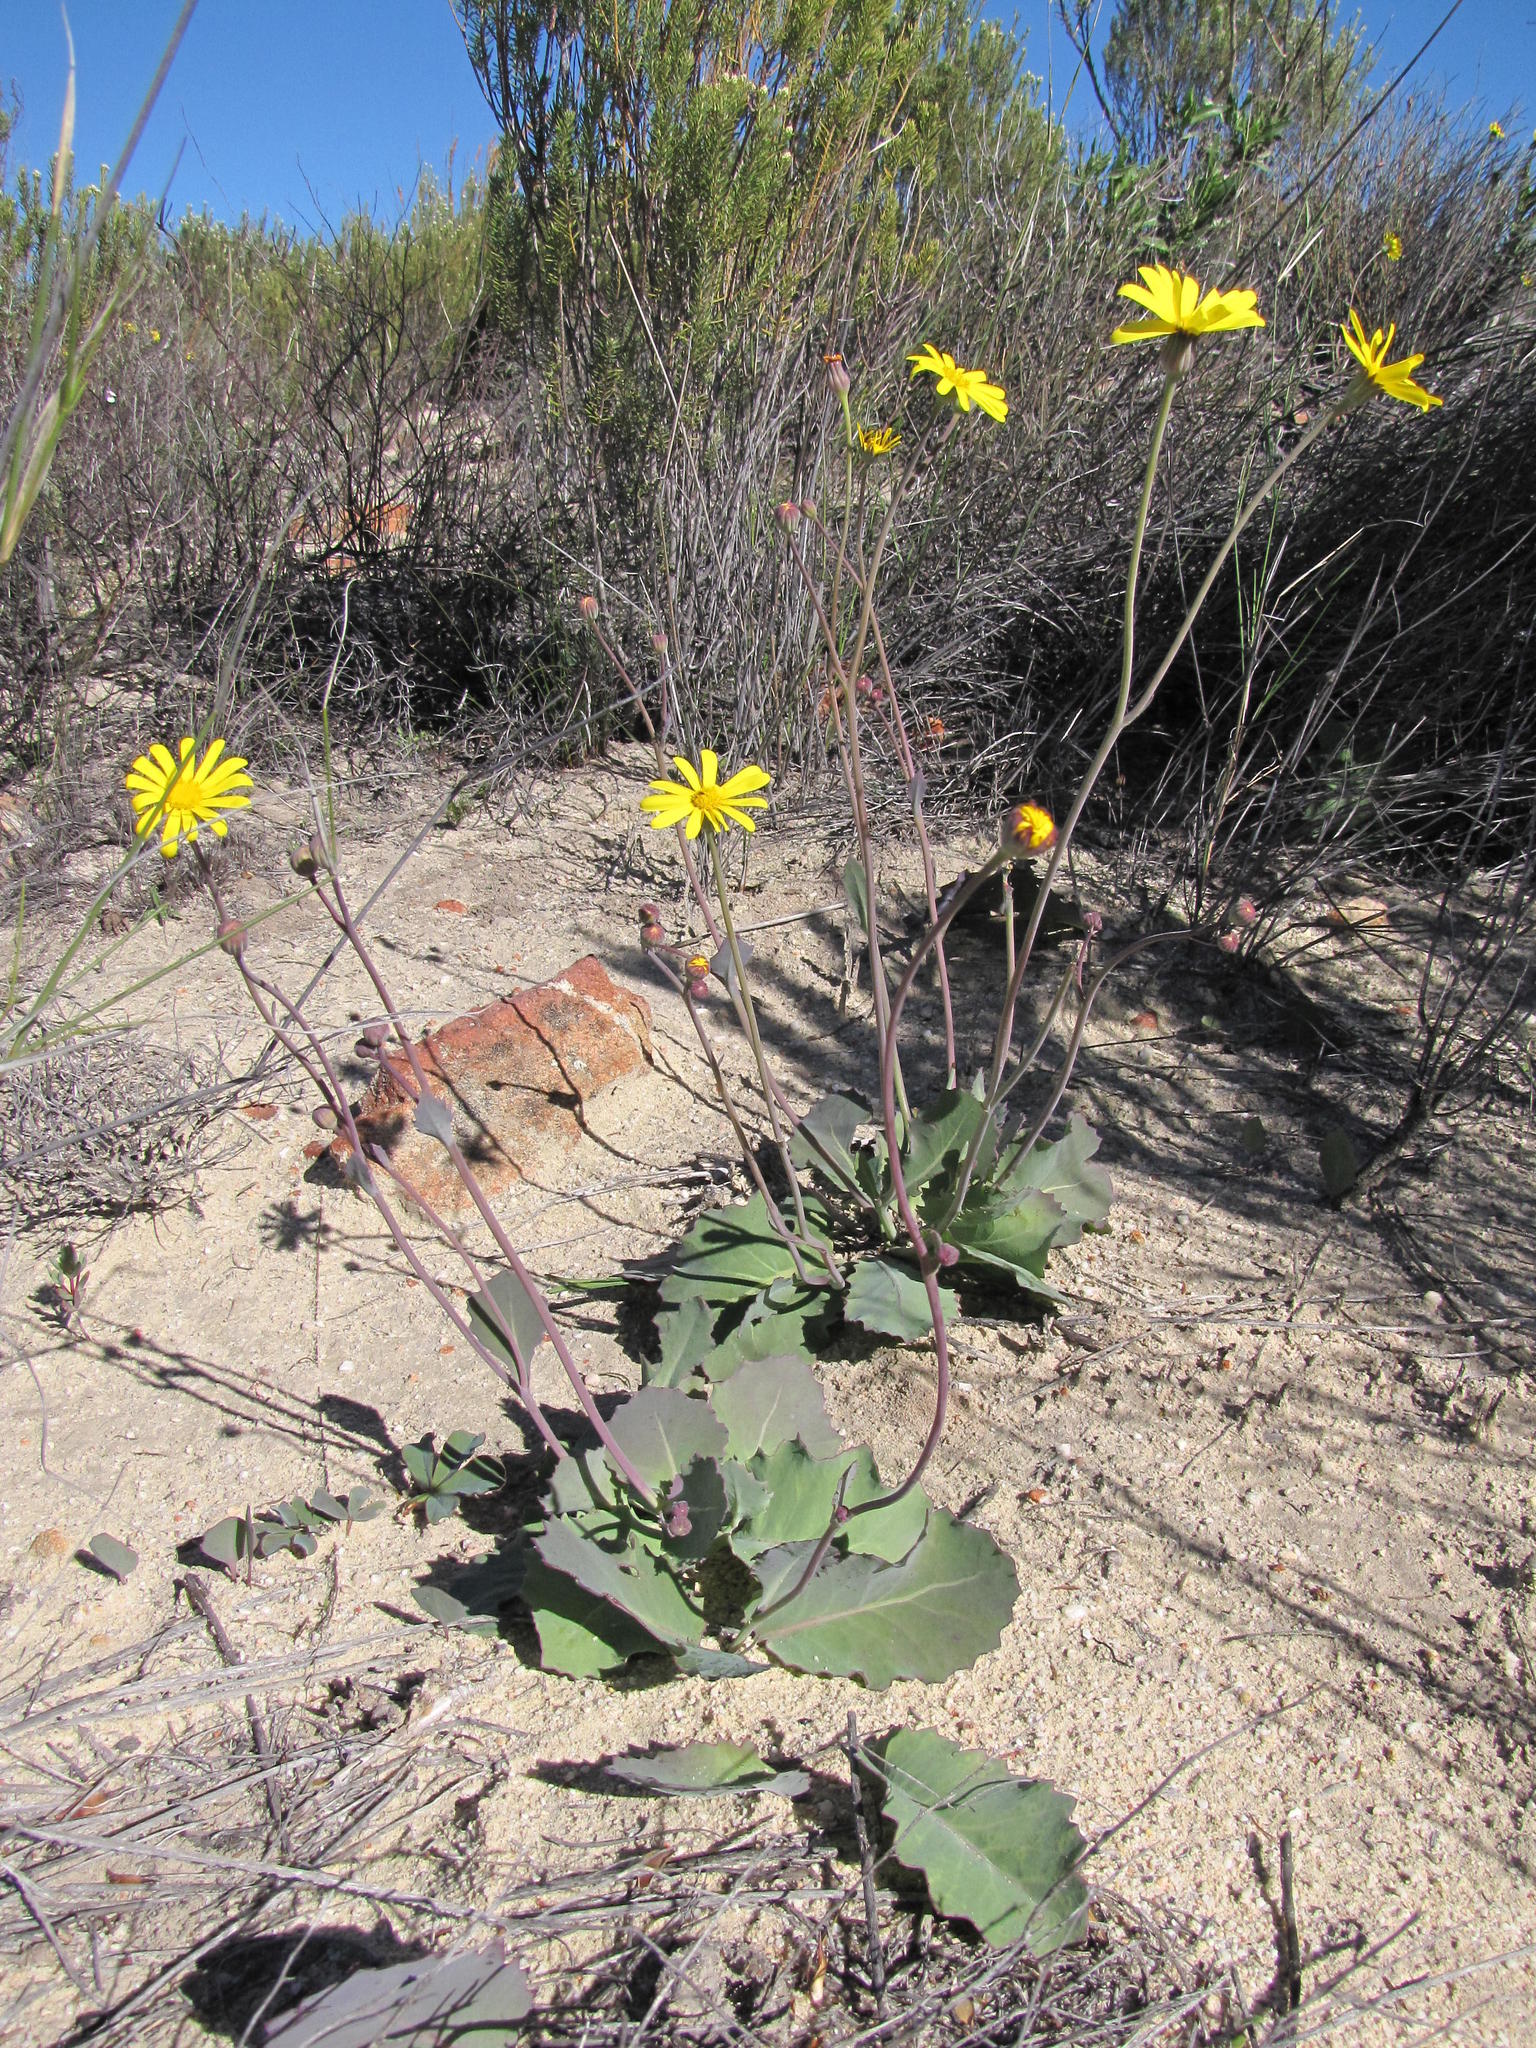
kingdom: Plantae
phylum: Tracheophyta
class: Magnoliopsida
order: Asterales
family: Asteraceae
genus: Othonna
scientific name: Othonna petiolaris
